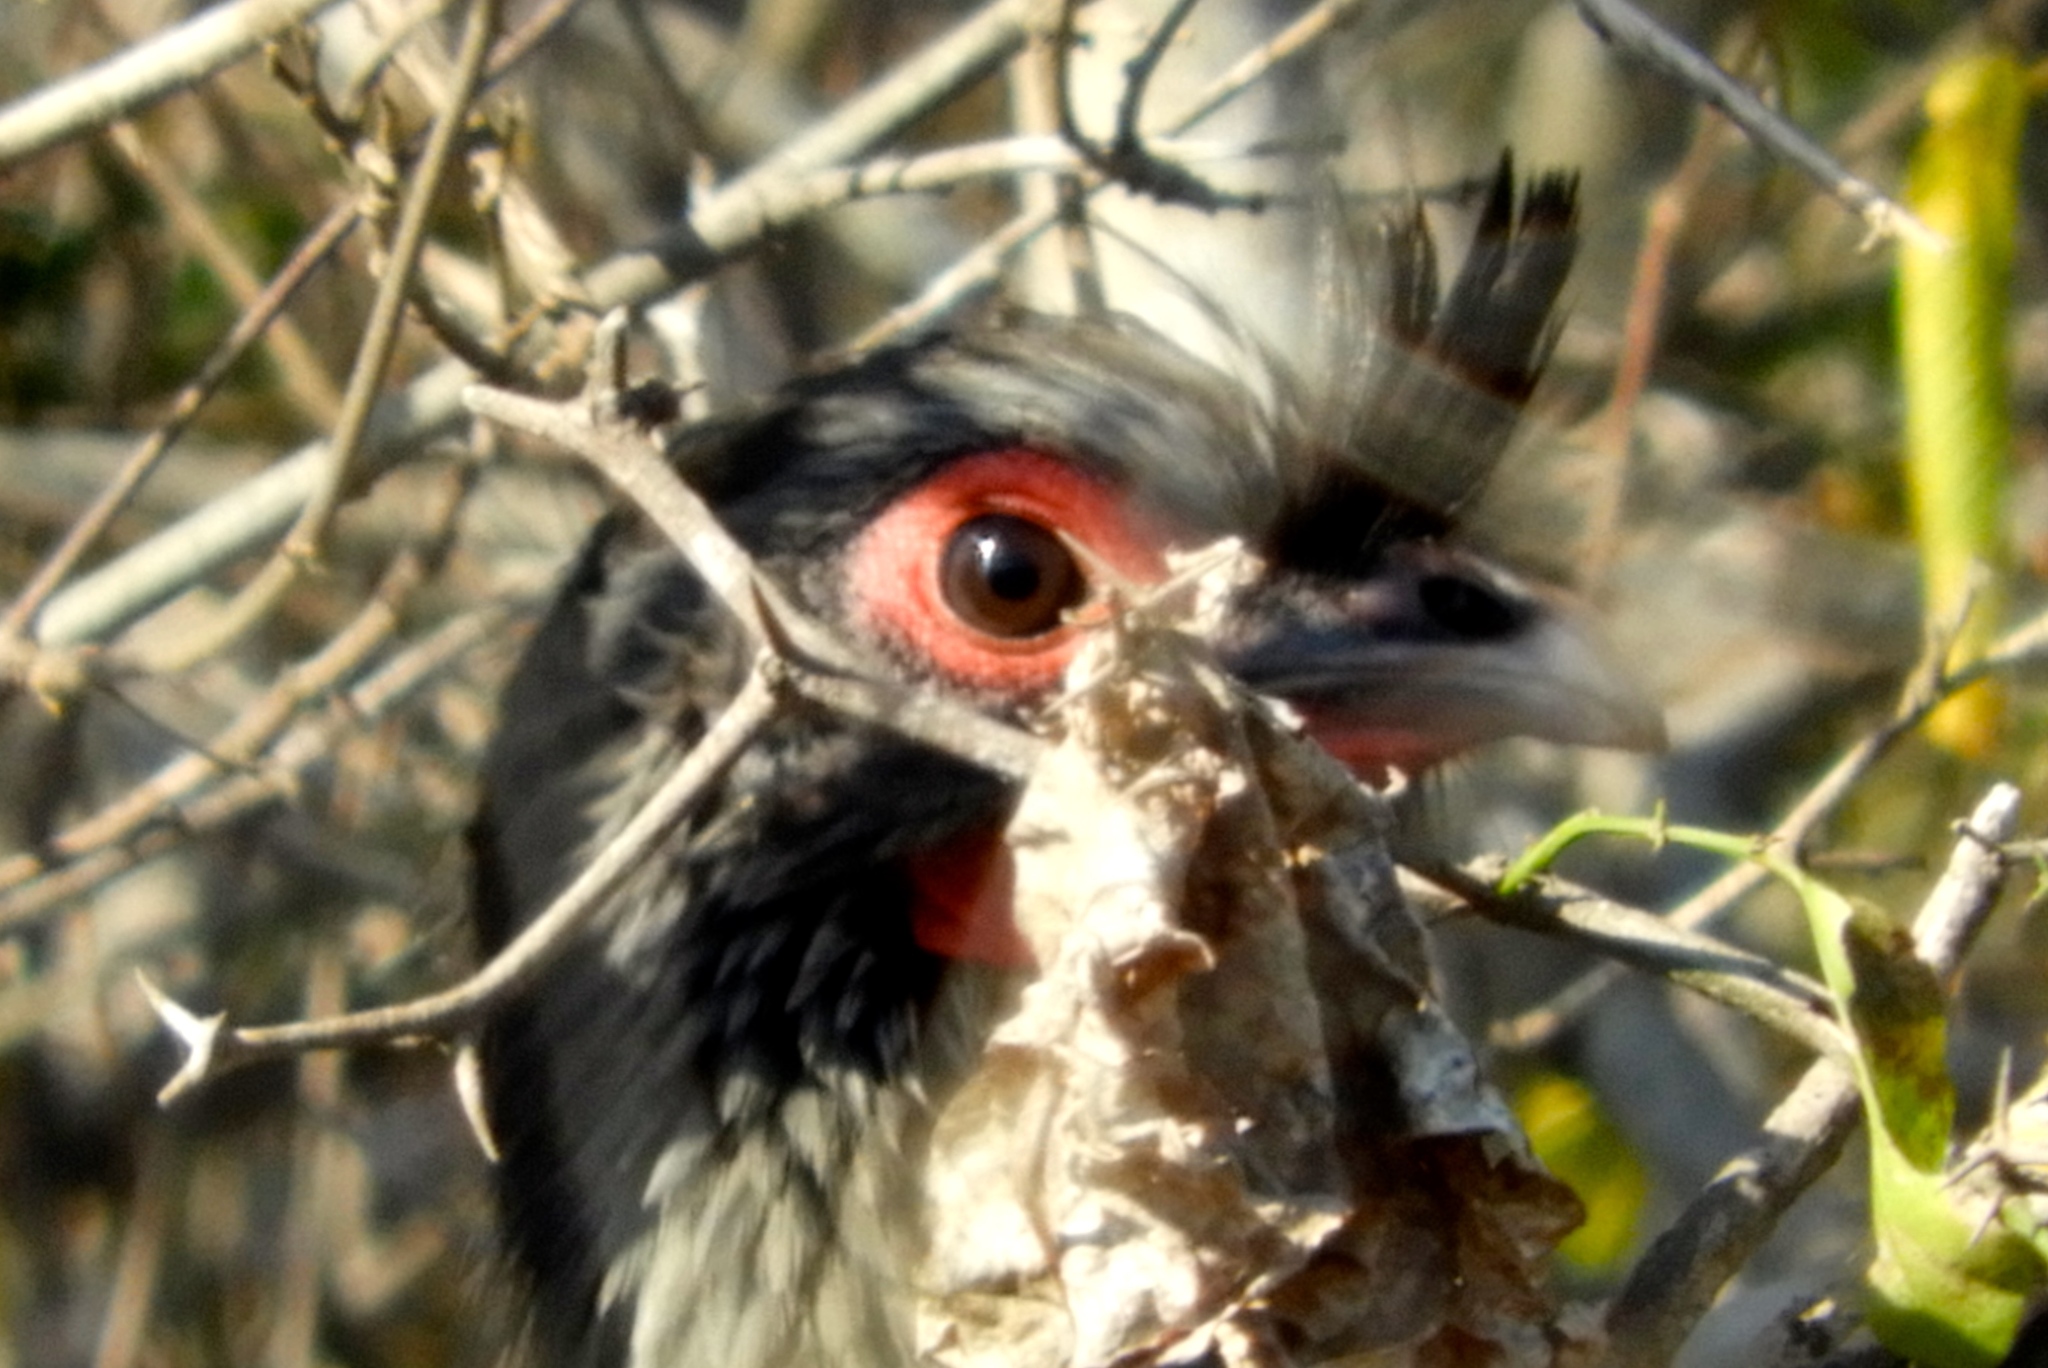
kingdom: Animalia
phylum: Chordata
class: Aves
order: Galliformes
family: Cracidae
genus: Ortalis
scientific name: Ortalis wagleri
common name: Rufous-bellied chachalaca
